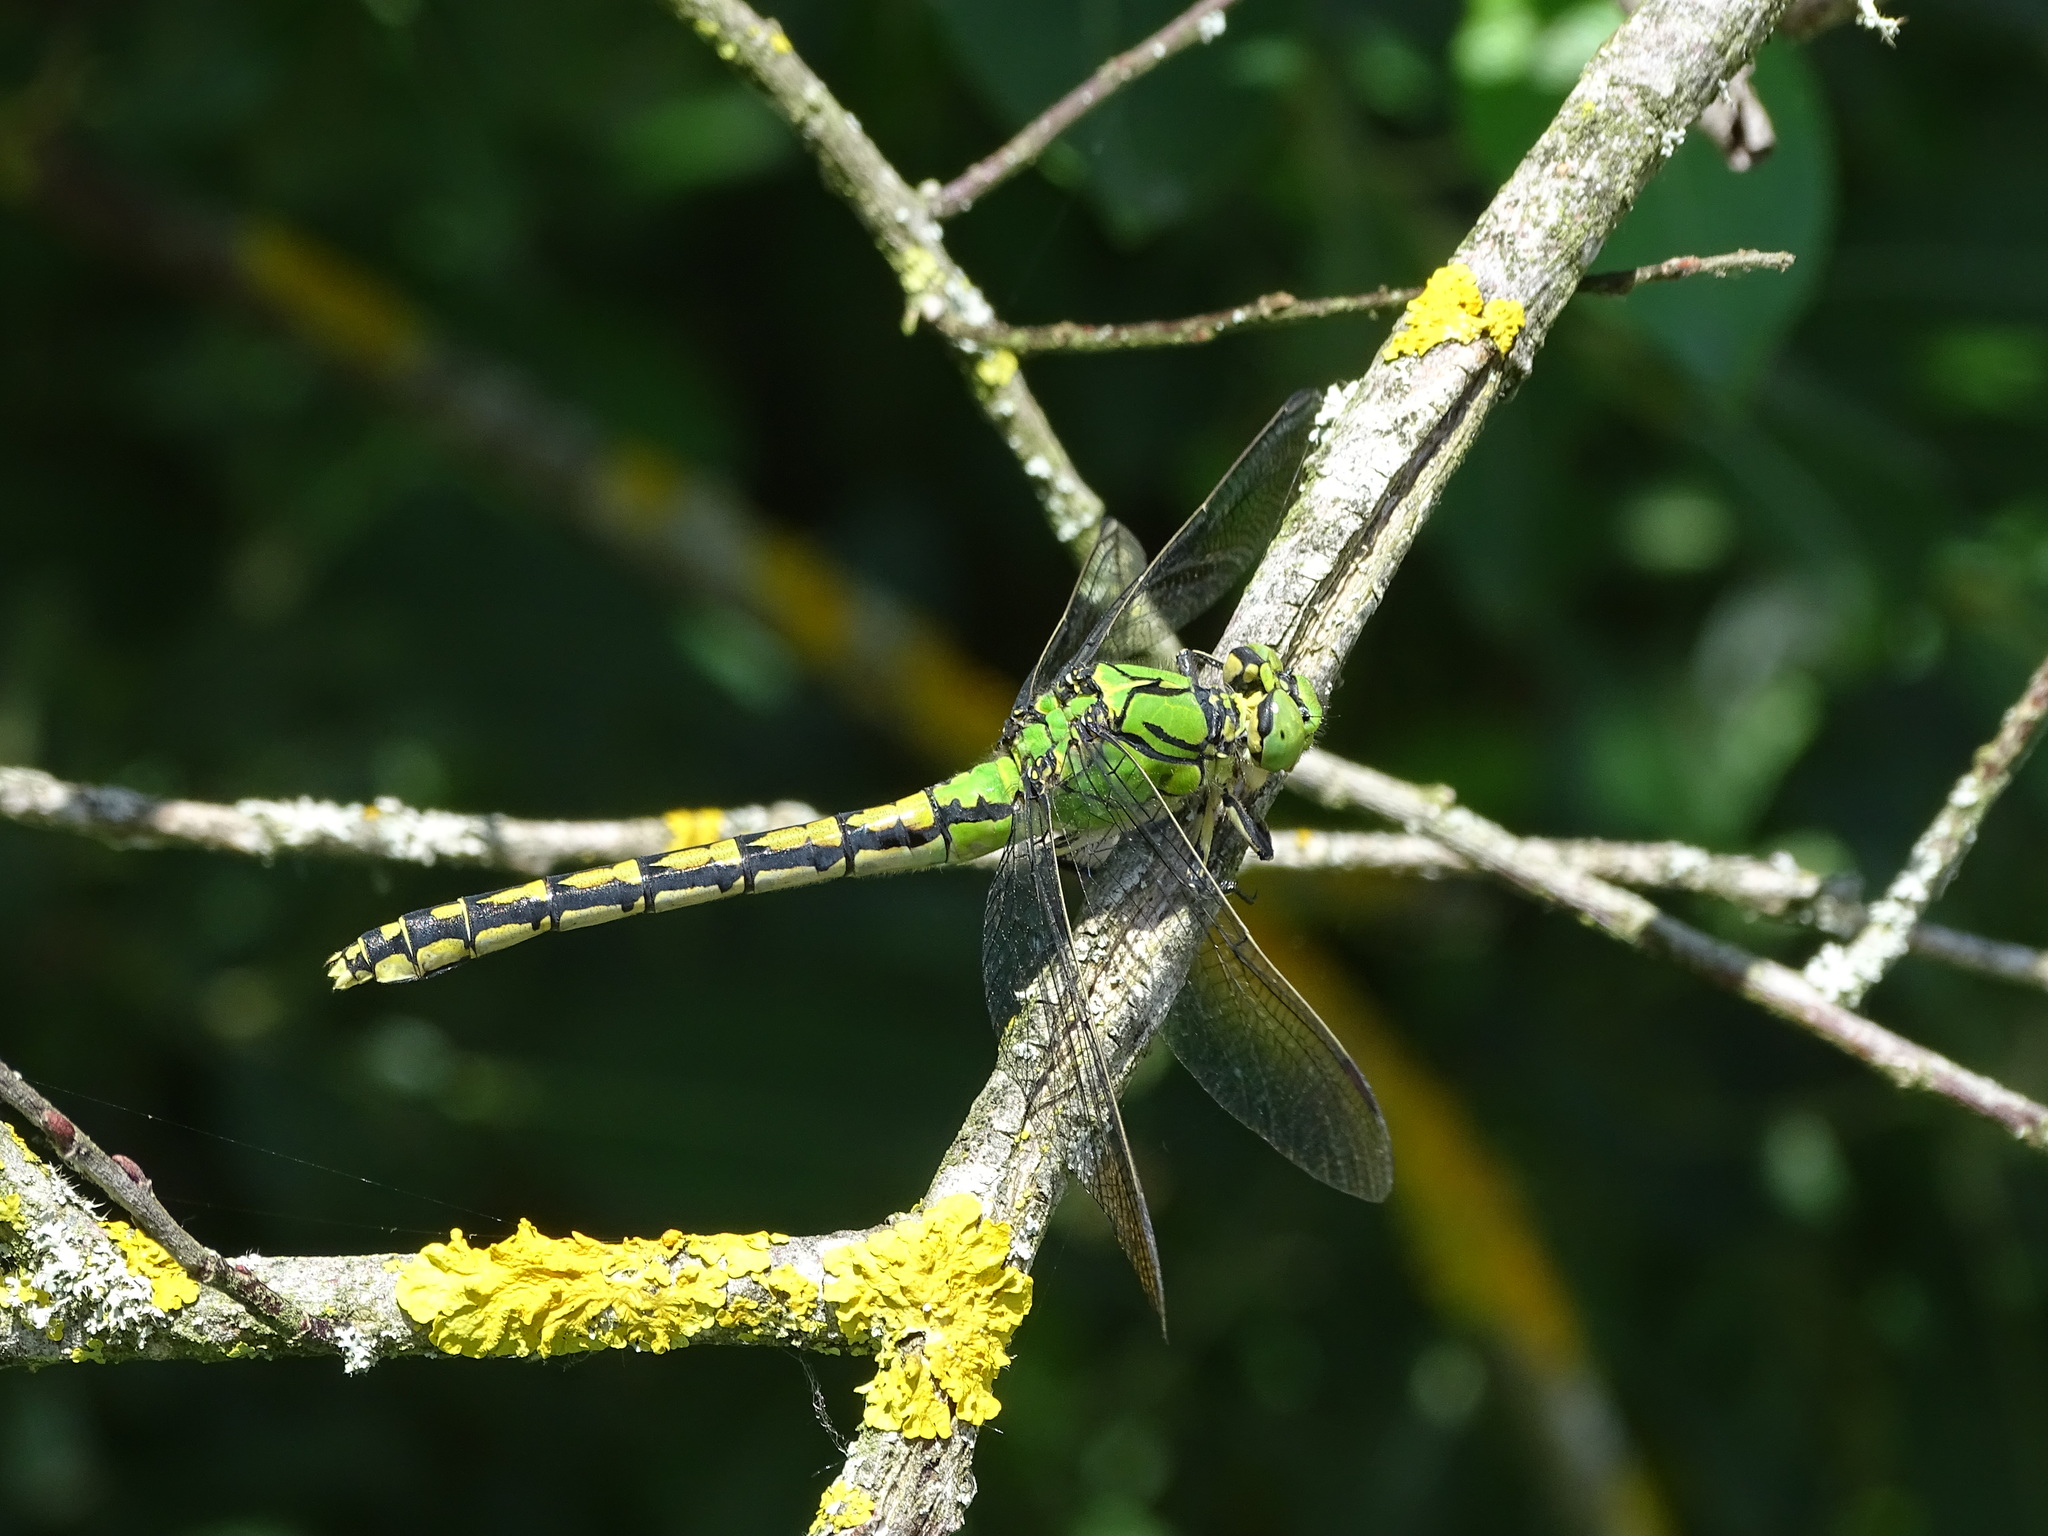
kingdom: Animalia
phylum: Arthropoda
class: Insecta
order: Odonata
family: Gomphidae
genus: Ophiogomphus
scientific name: Ophiogomphus cecilia
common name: Green snaketail
